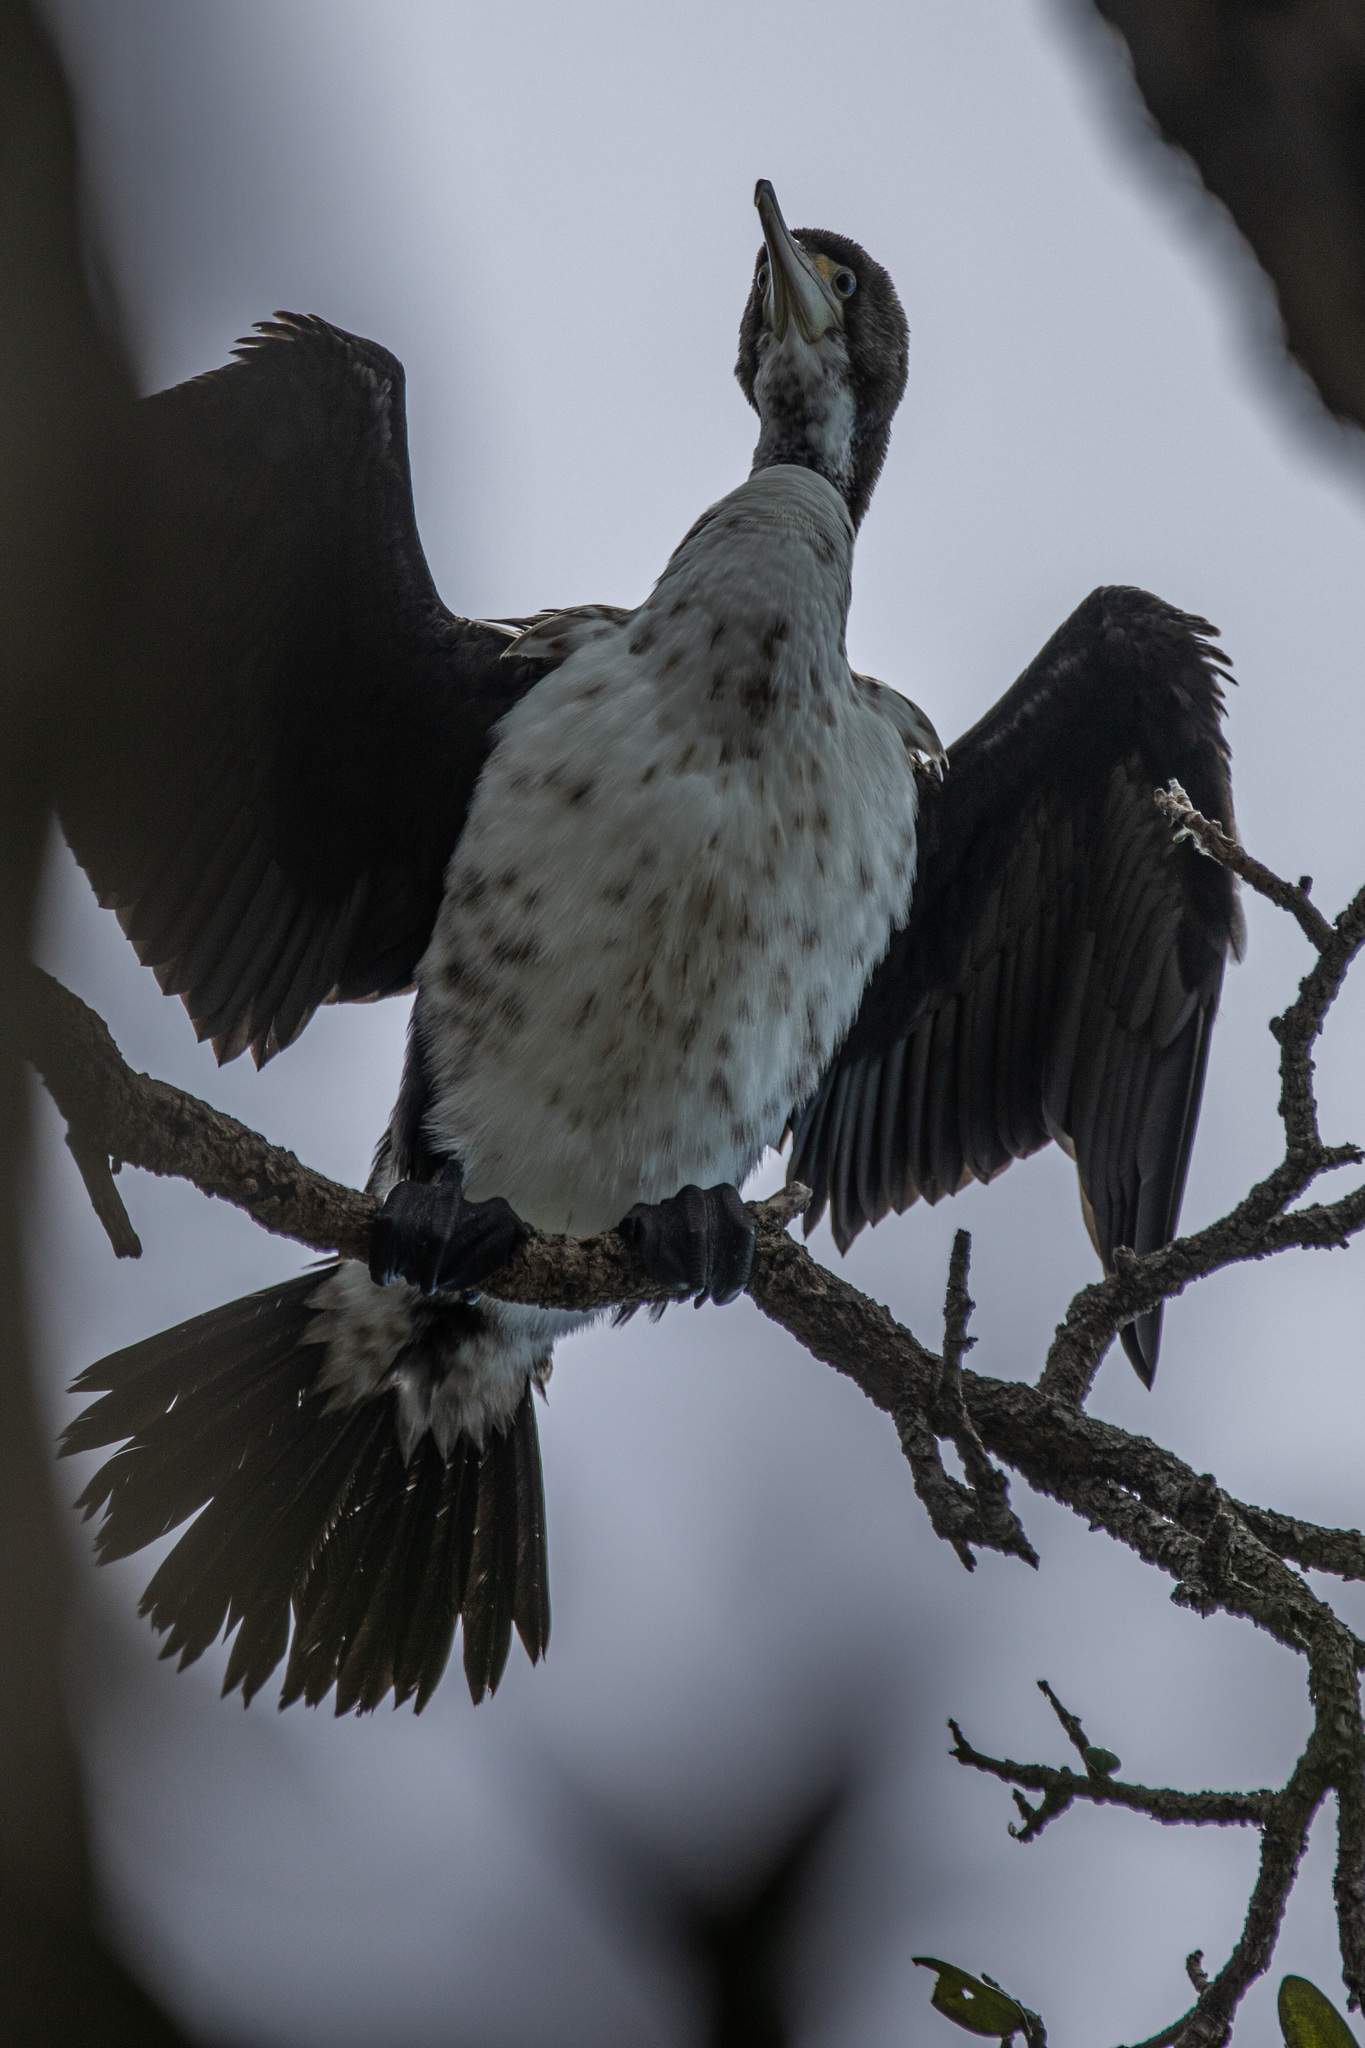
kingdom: Animalia
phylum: Chordata
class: Aves
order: Suliformes
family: Phalacrocoracidae
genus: Phalacrocorax
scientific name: Phalacrocorax varius
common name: Pied cormorant
